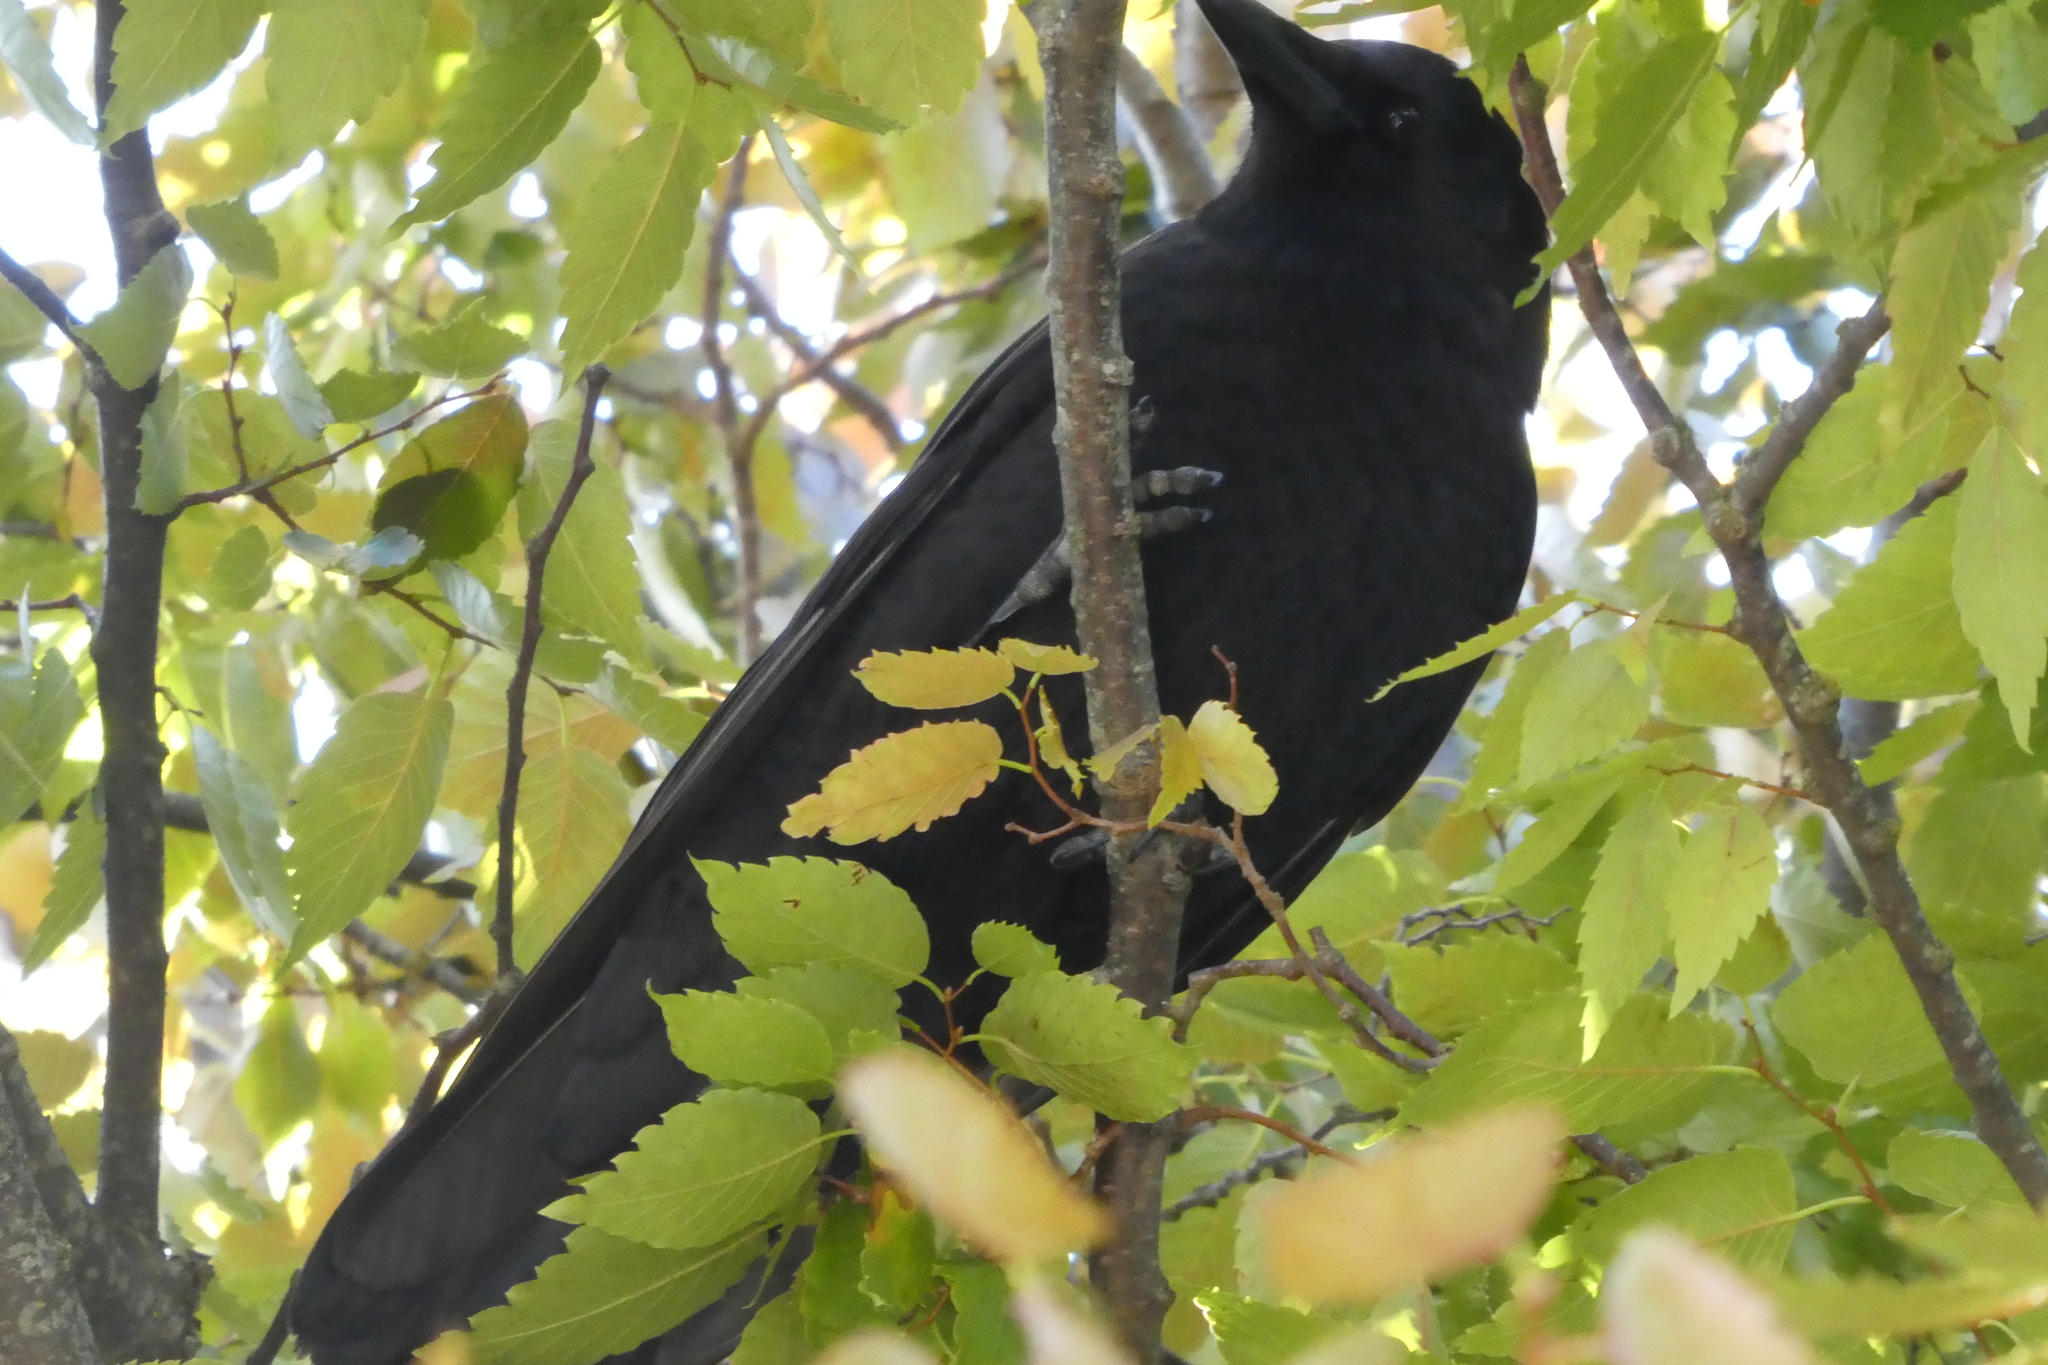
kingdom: Animalia
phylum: Chordata
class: Aves
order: Passeriformes
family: Corvidae
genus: Corvus
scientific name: Corvus brachyrhynchos
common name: American crow
